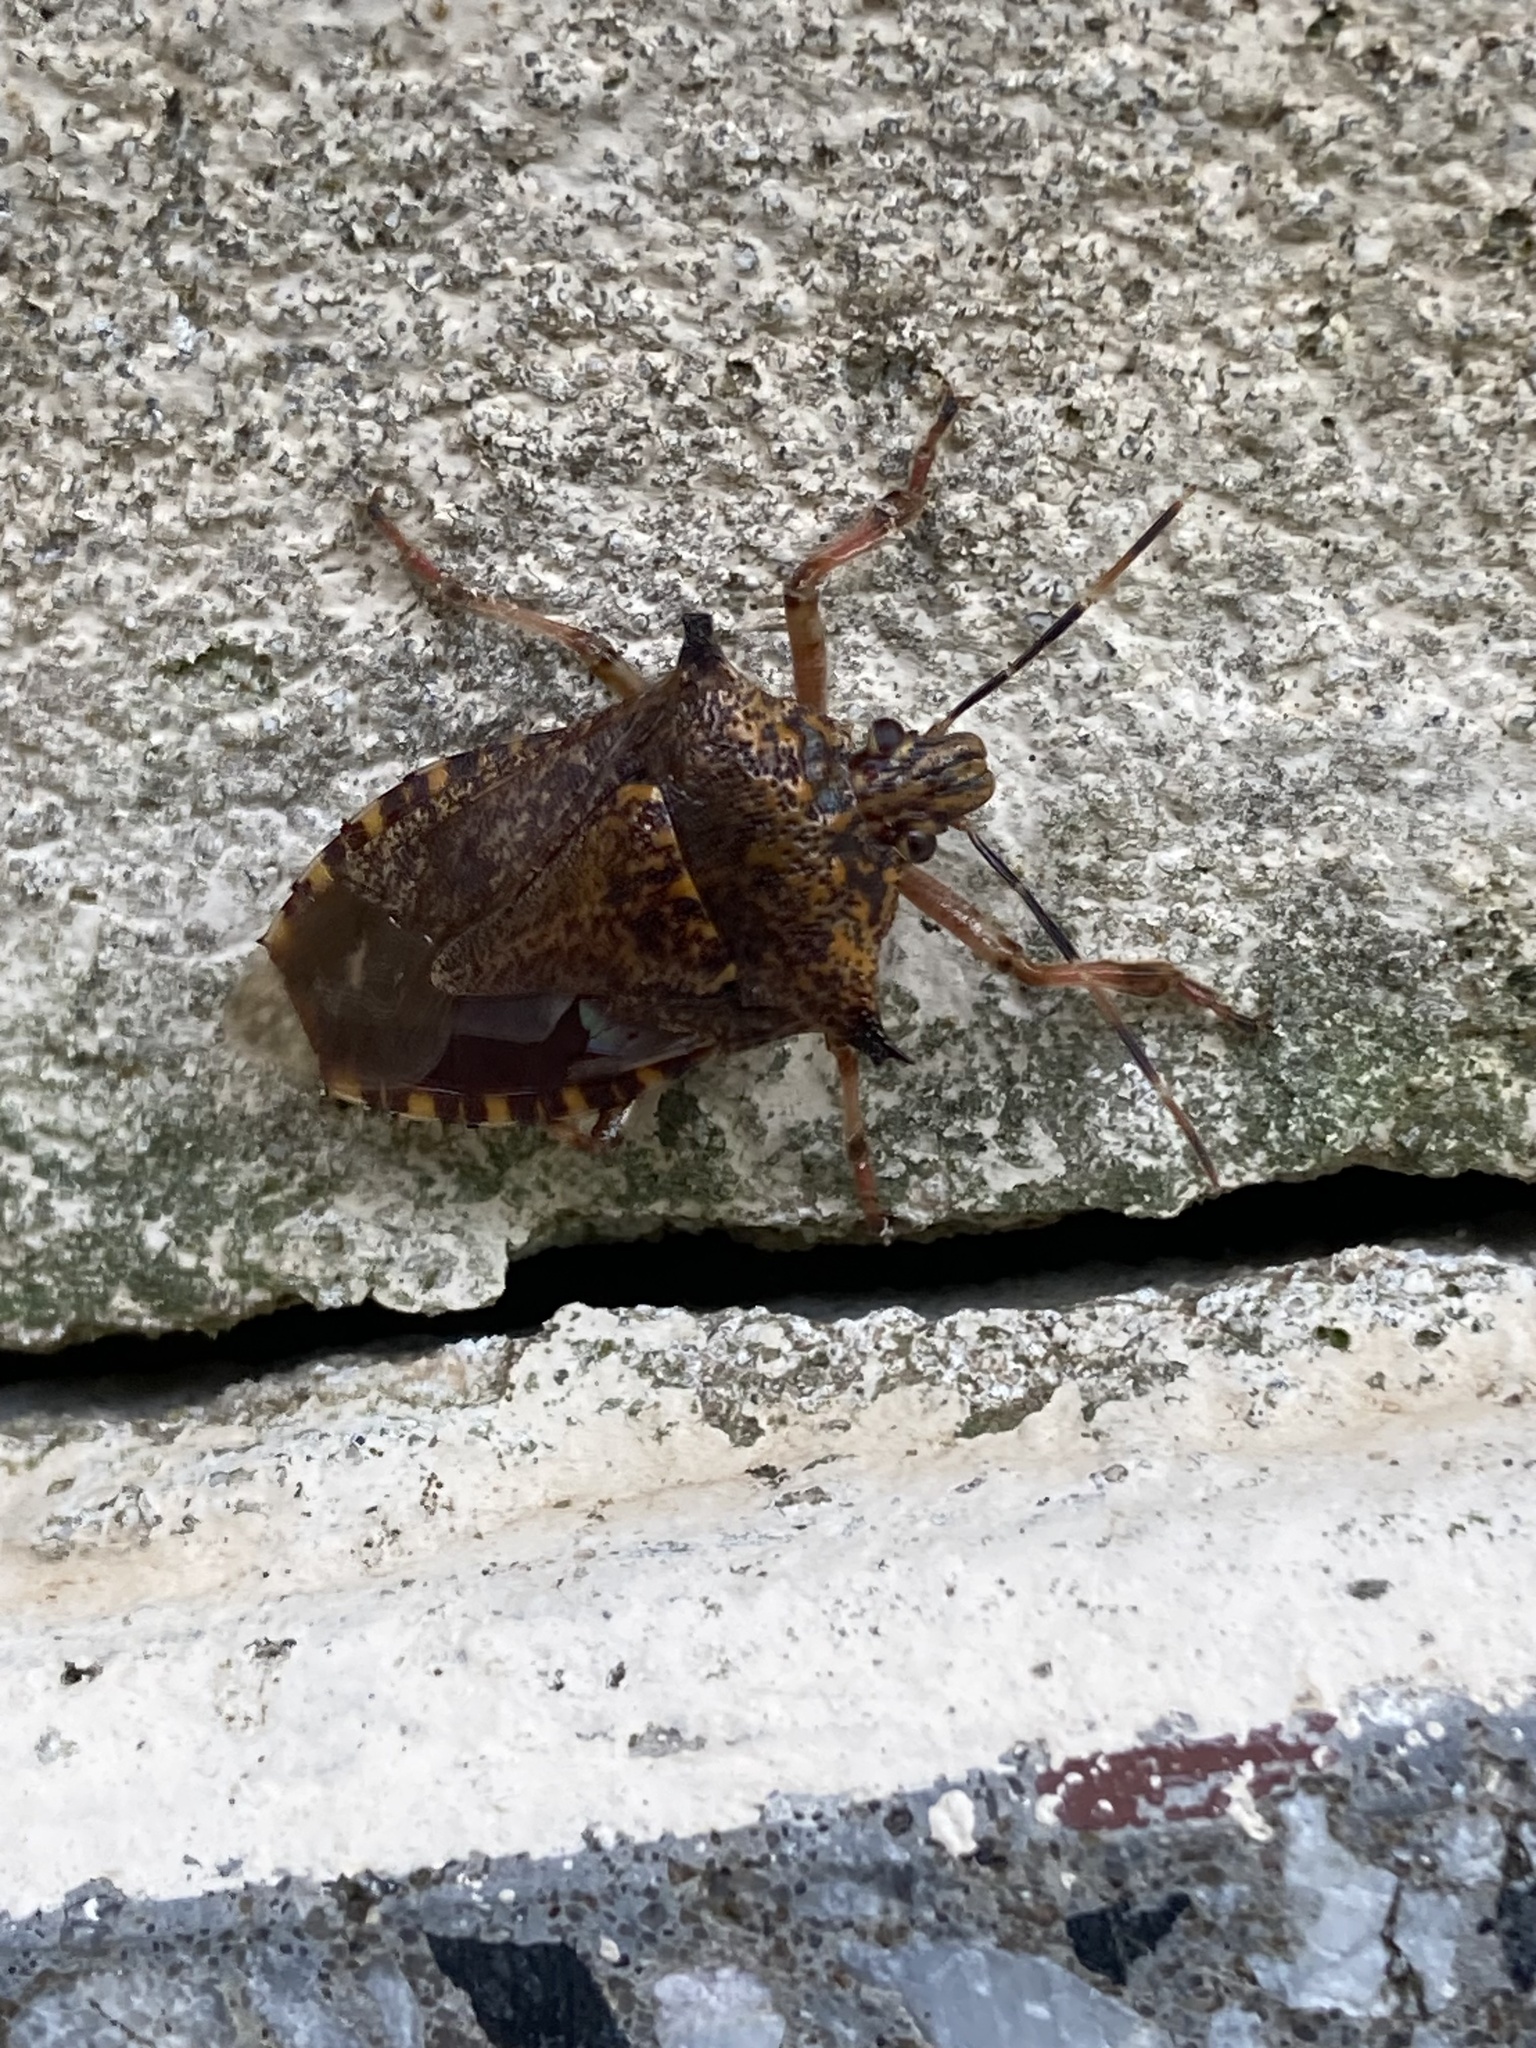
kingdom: Animalia
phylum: Arthropoda
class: Insecta
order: Hemiptera
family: Pentatomidae
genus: Alcaeorrhynchus
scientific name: Alcaeorrhynchus grandis
